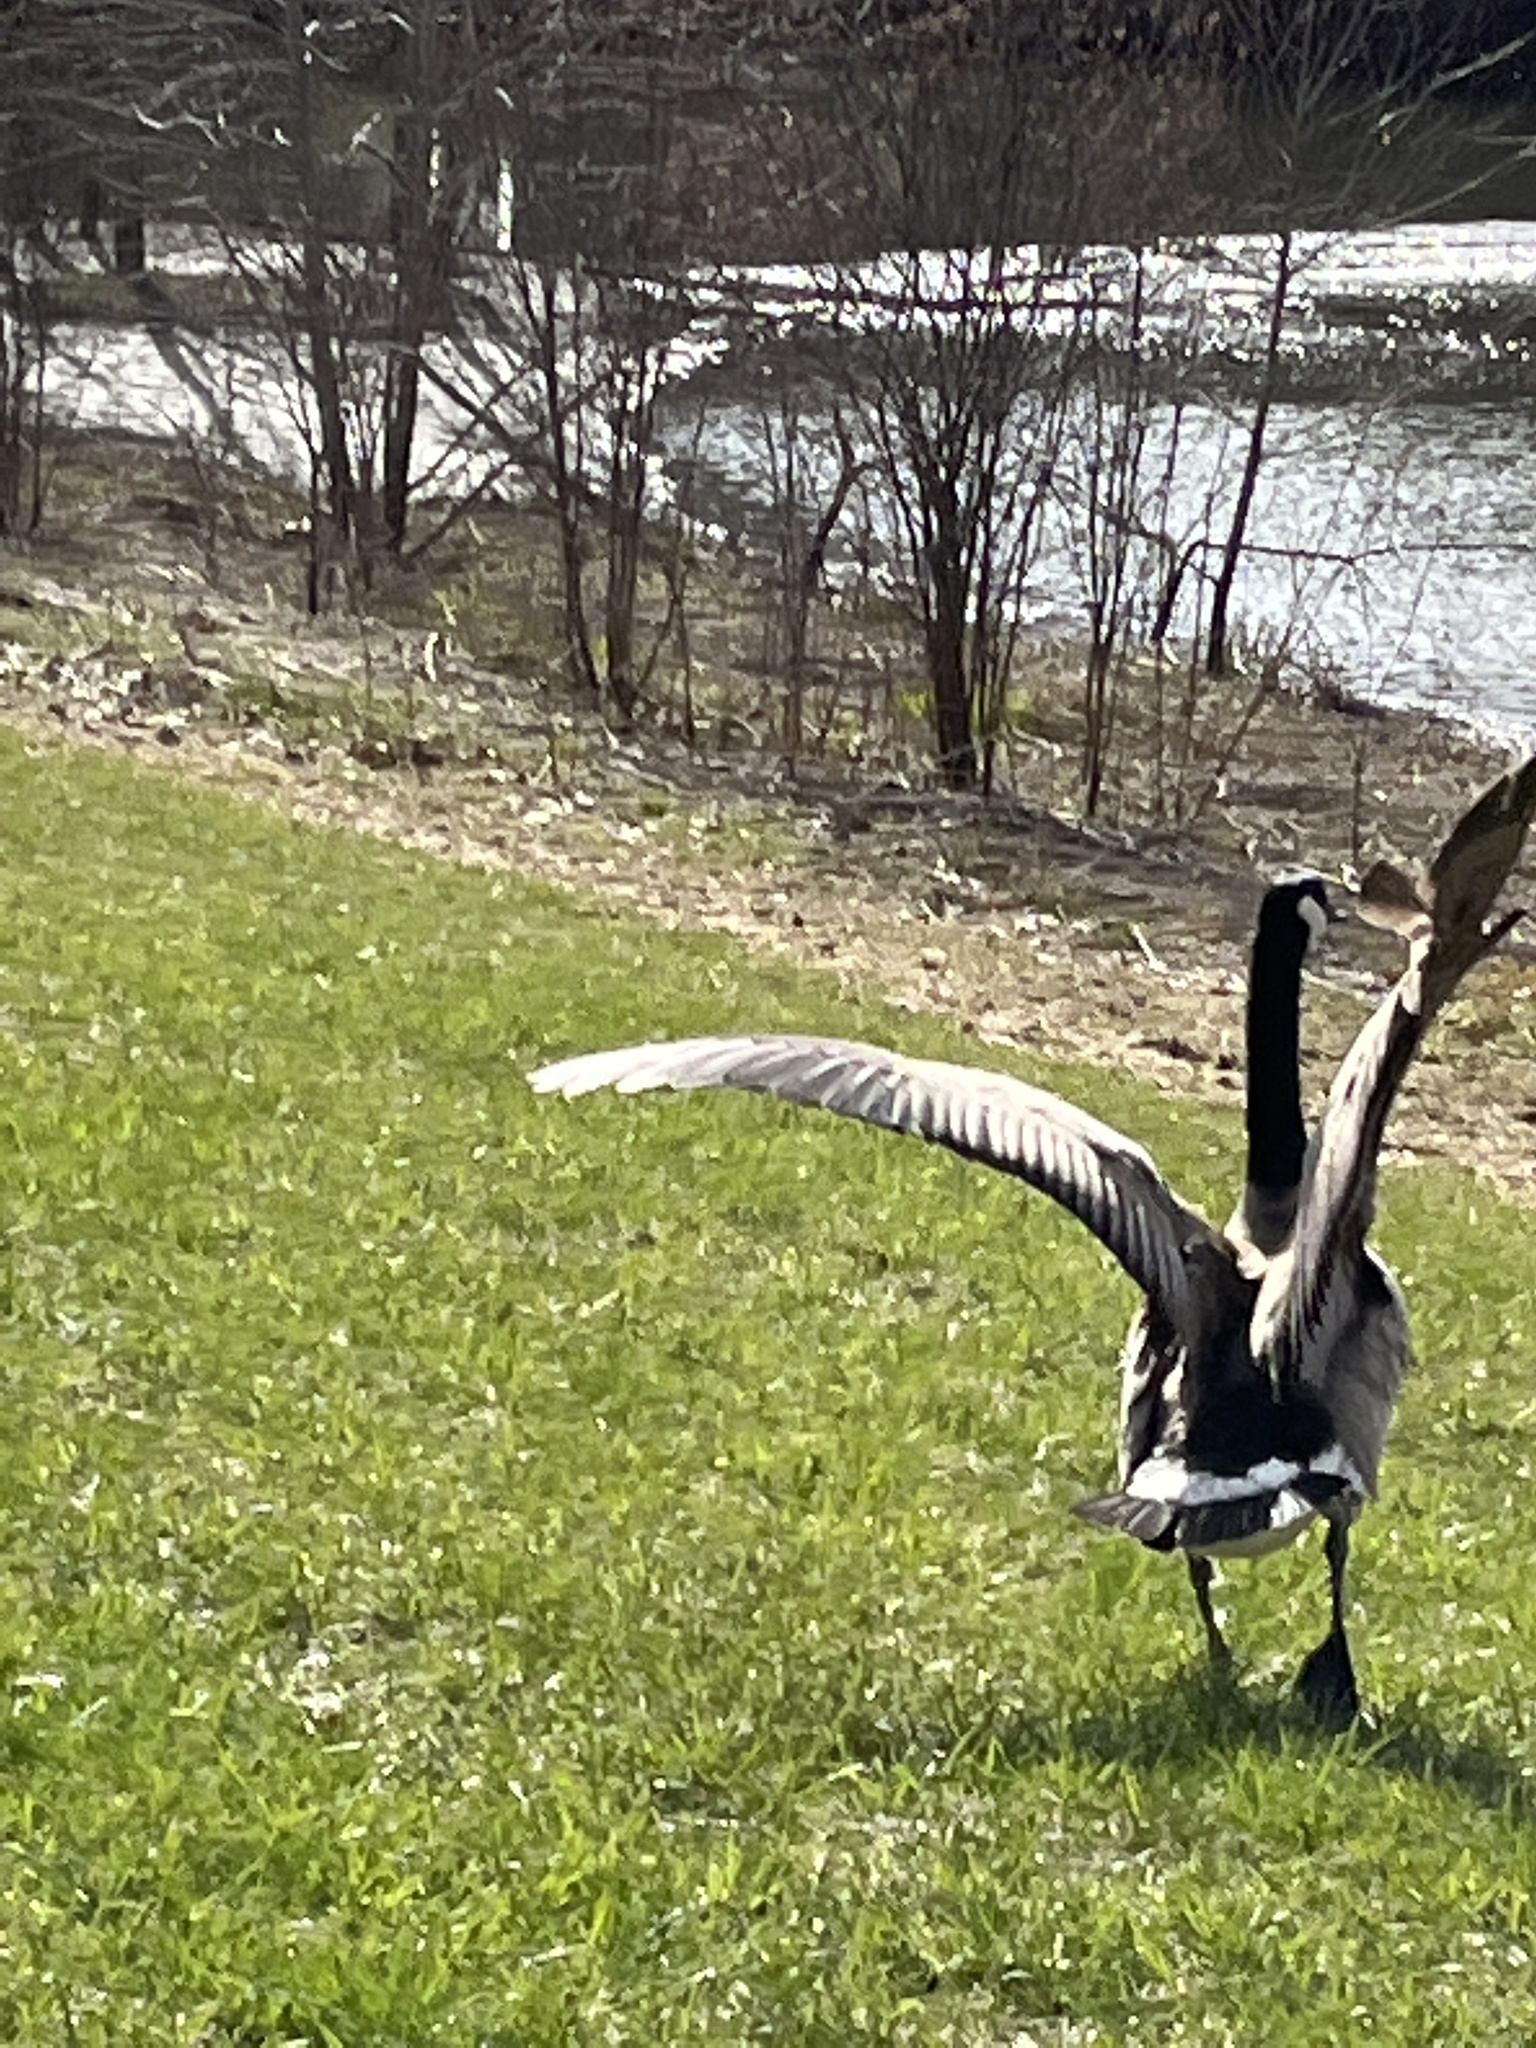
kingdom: Animalia
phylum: Chordata
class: Aves
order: Anseriformes
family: Anatidae
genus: Branta
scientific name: Branta canadensis
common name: Canada goose
